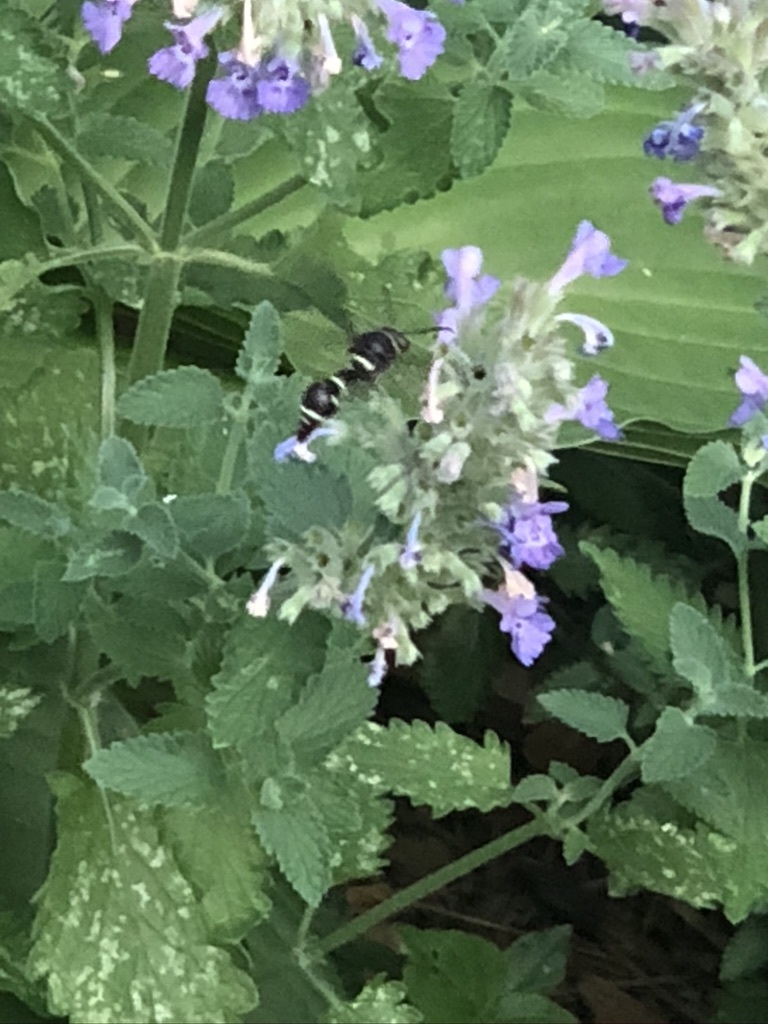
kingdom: Animalia
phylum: Arthropoda
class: Insecta
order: Hymenoptera
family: Vespidae
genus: Eumenes
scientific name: Eumenes fraternus
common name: Fraternal potter wasp
